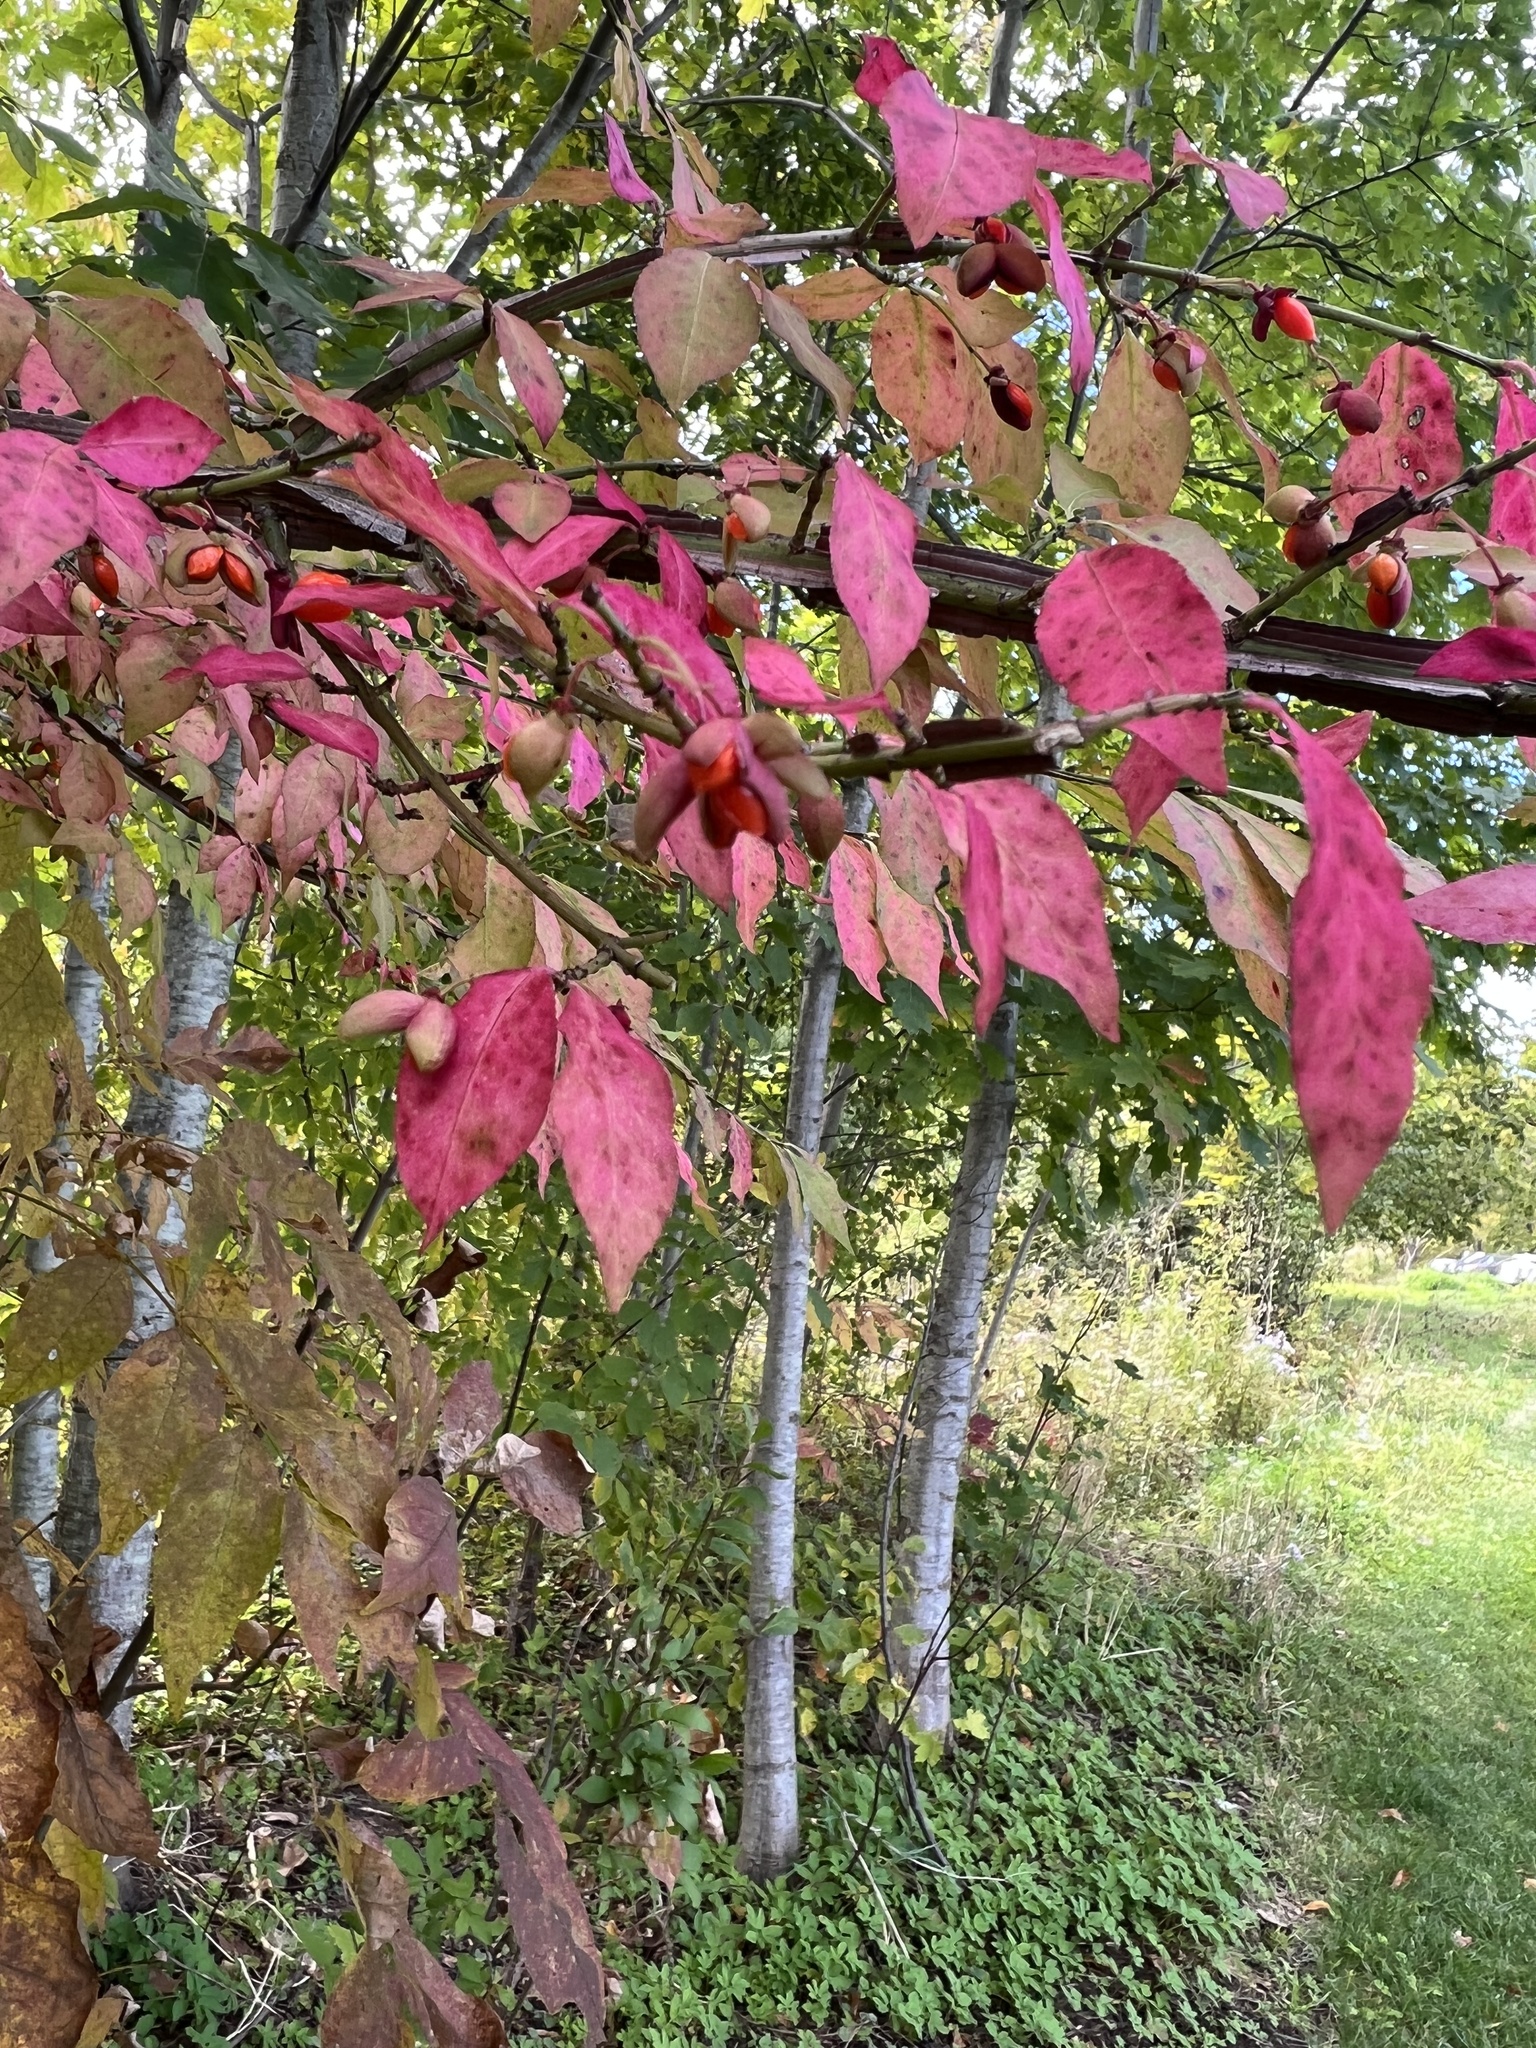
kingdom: Plantae
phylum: Tracheophyta
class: Magnoliopsida
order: Celastrales
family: Celastraceae
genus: Euonymus
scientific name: Euonymus alatus
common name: Winged euonymus
